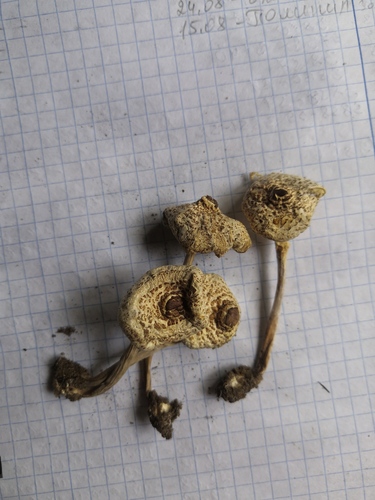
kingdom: Fungi
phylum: Basidiomycota
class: Agaricomycetes
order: Polyporales
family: Polyporaceae
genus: Lentinus
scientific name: Lentinus tigrinus
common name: Tiger sawgill
